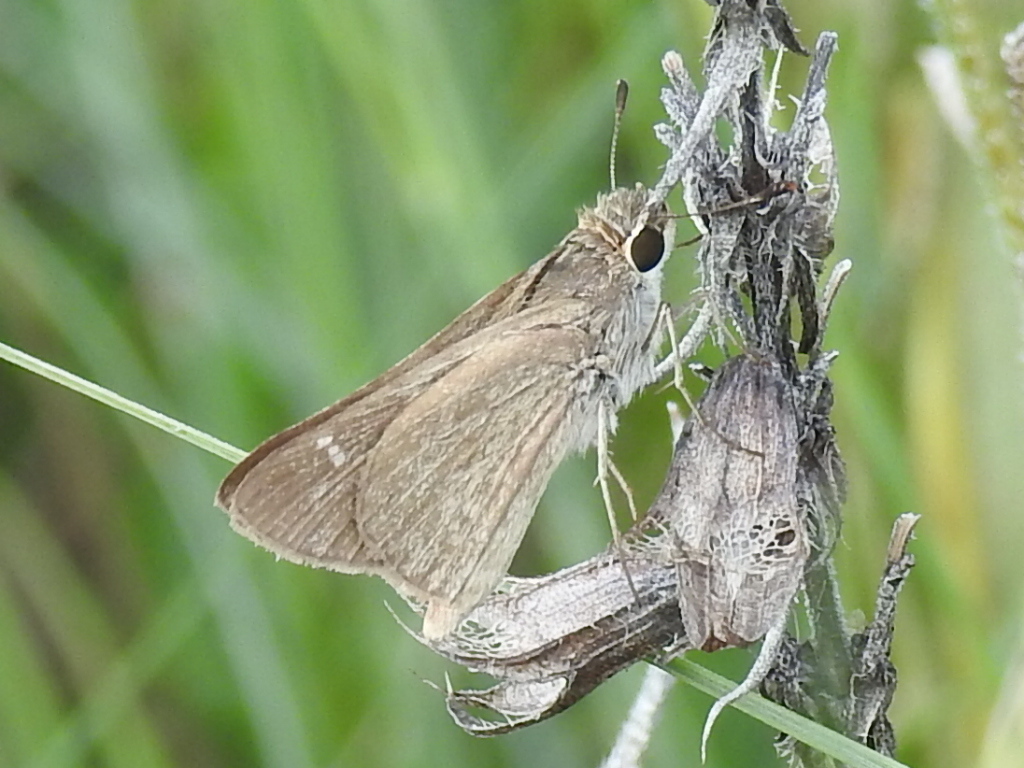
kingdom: Animalia
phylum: Arthropoda
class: Insecta
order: Lepidoptera
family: Hesperiidae
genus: Lerodea
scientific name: Lerodea eufala
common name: Eufala skipper
